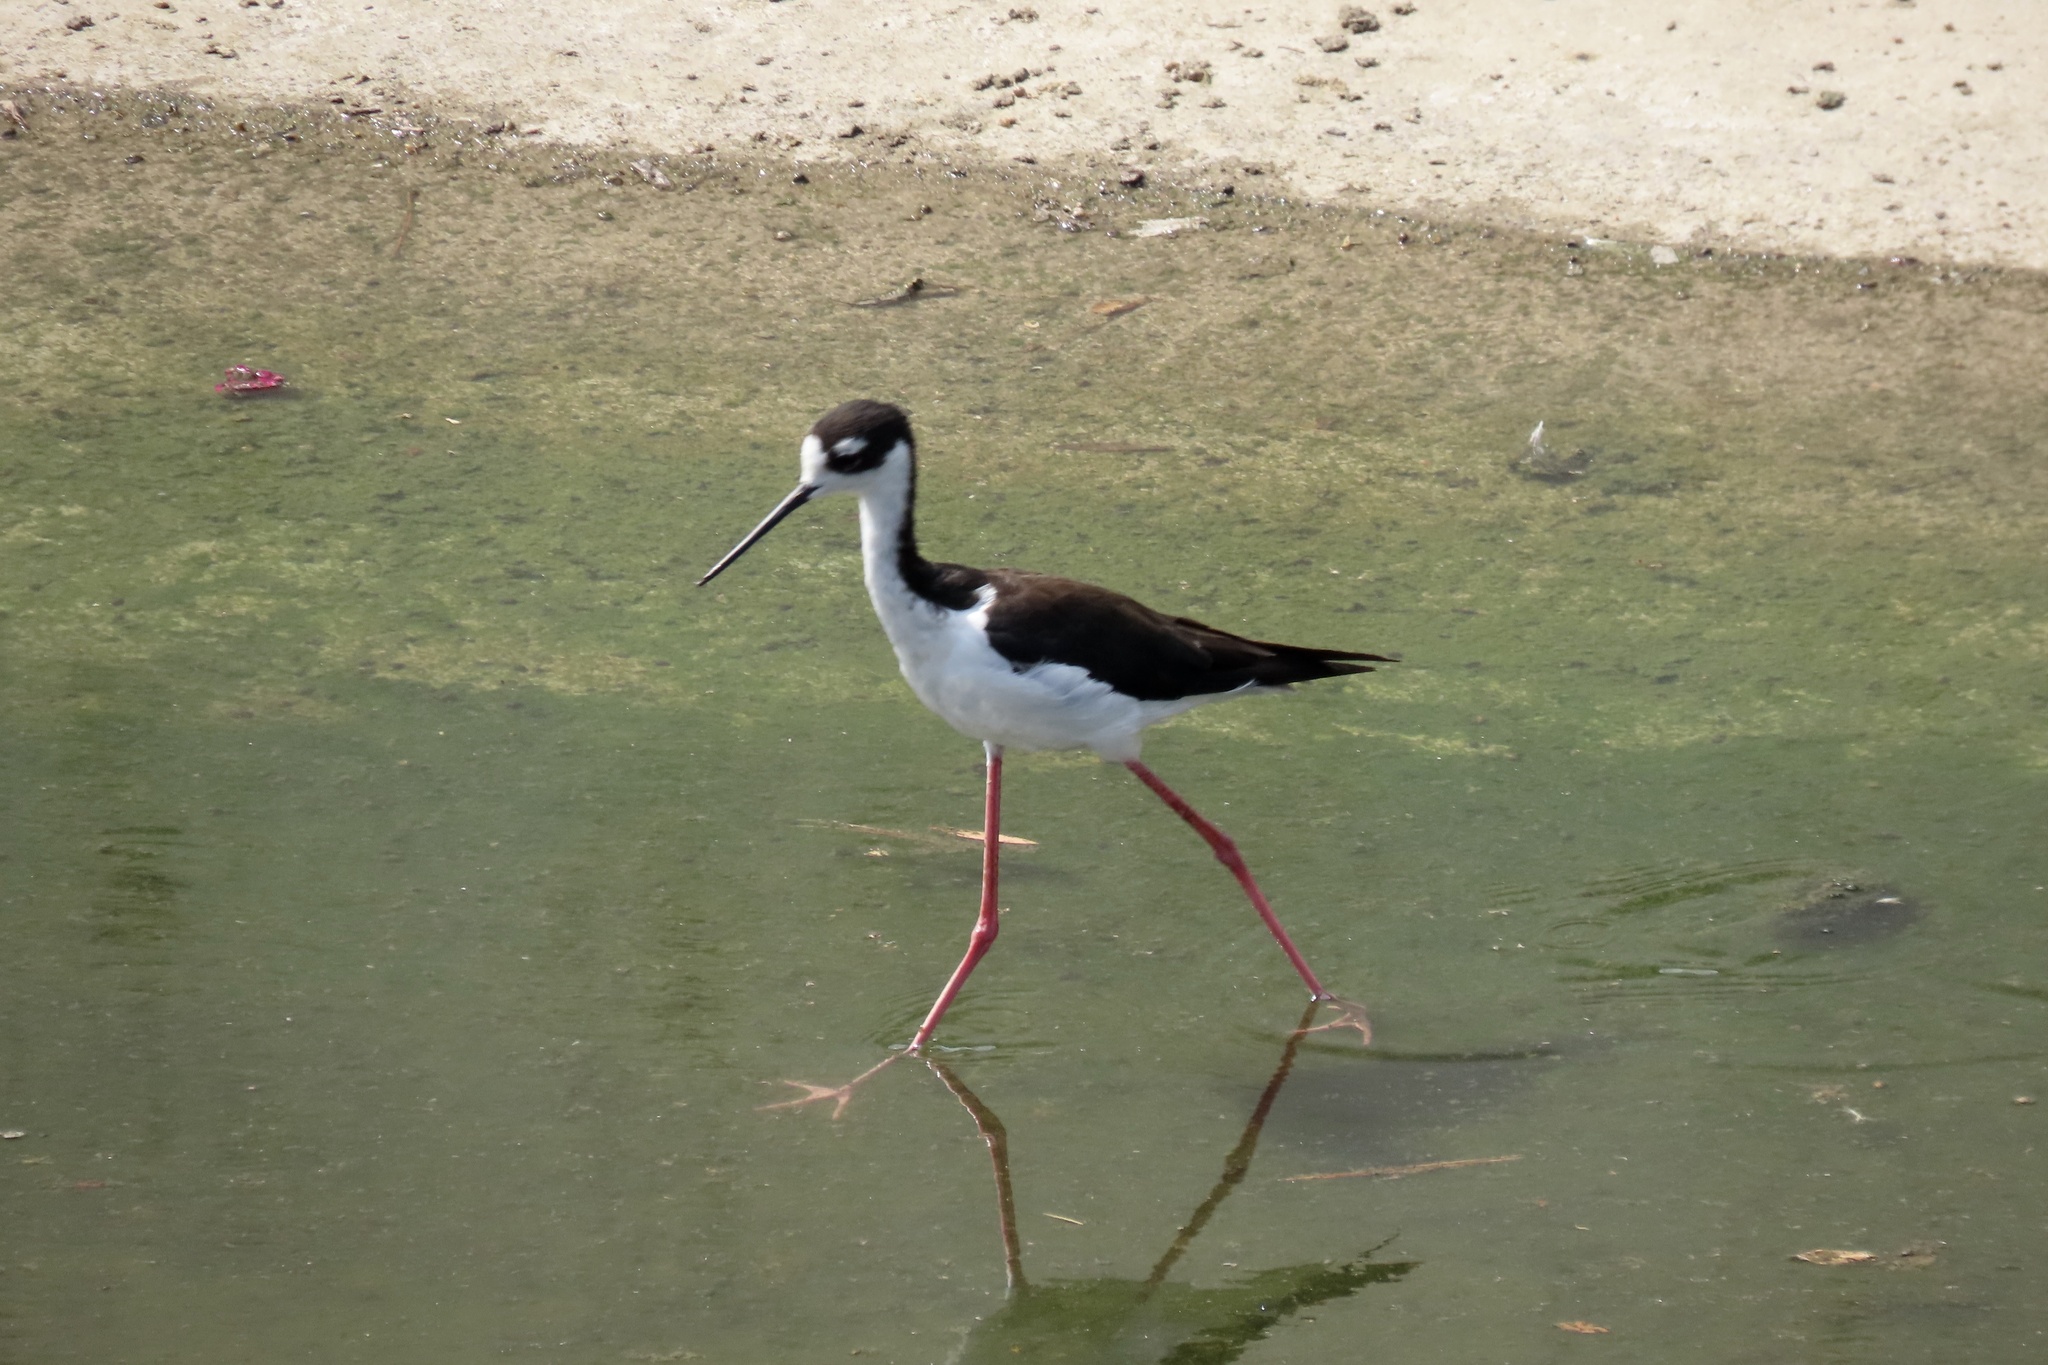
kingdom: Animalia
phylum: Chordata
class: Aves
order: Charadriiformes
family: Recurvirostridae
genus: Himantopus
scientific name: Himantopus mexicanus
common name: Black-necked stilt
